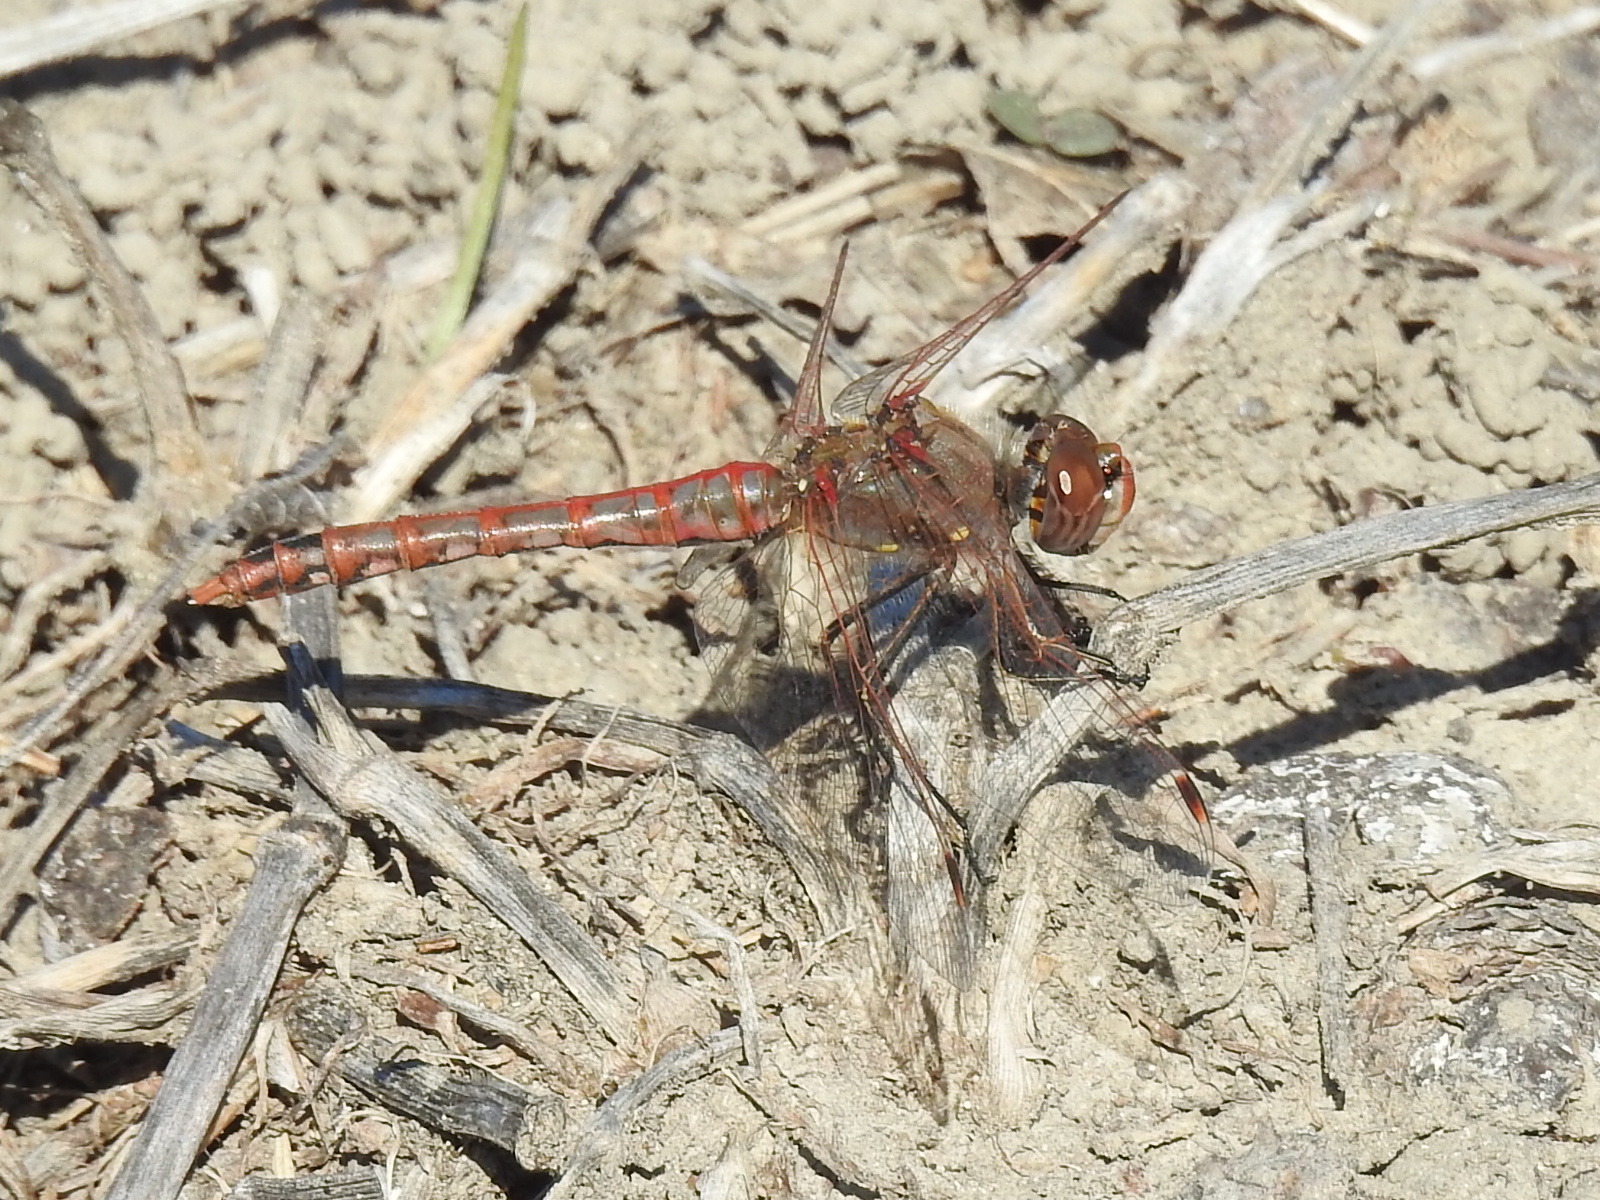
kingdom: Animalia
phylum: Arthropoda
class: Insecta
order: Odonata
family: Libellulidae
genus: Sympetrum
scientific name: Sympetrum corruptum
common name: Variegated meadowhawk
